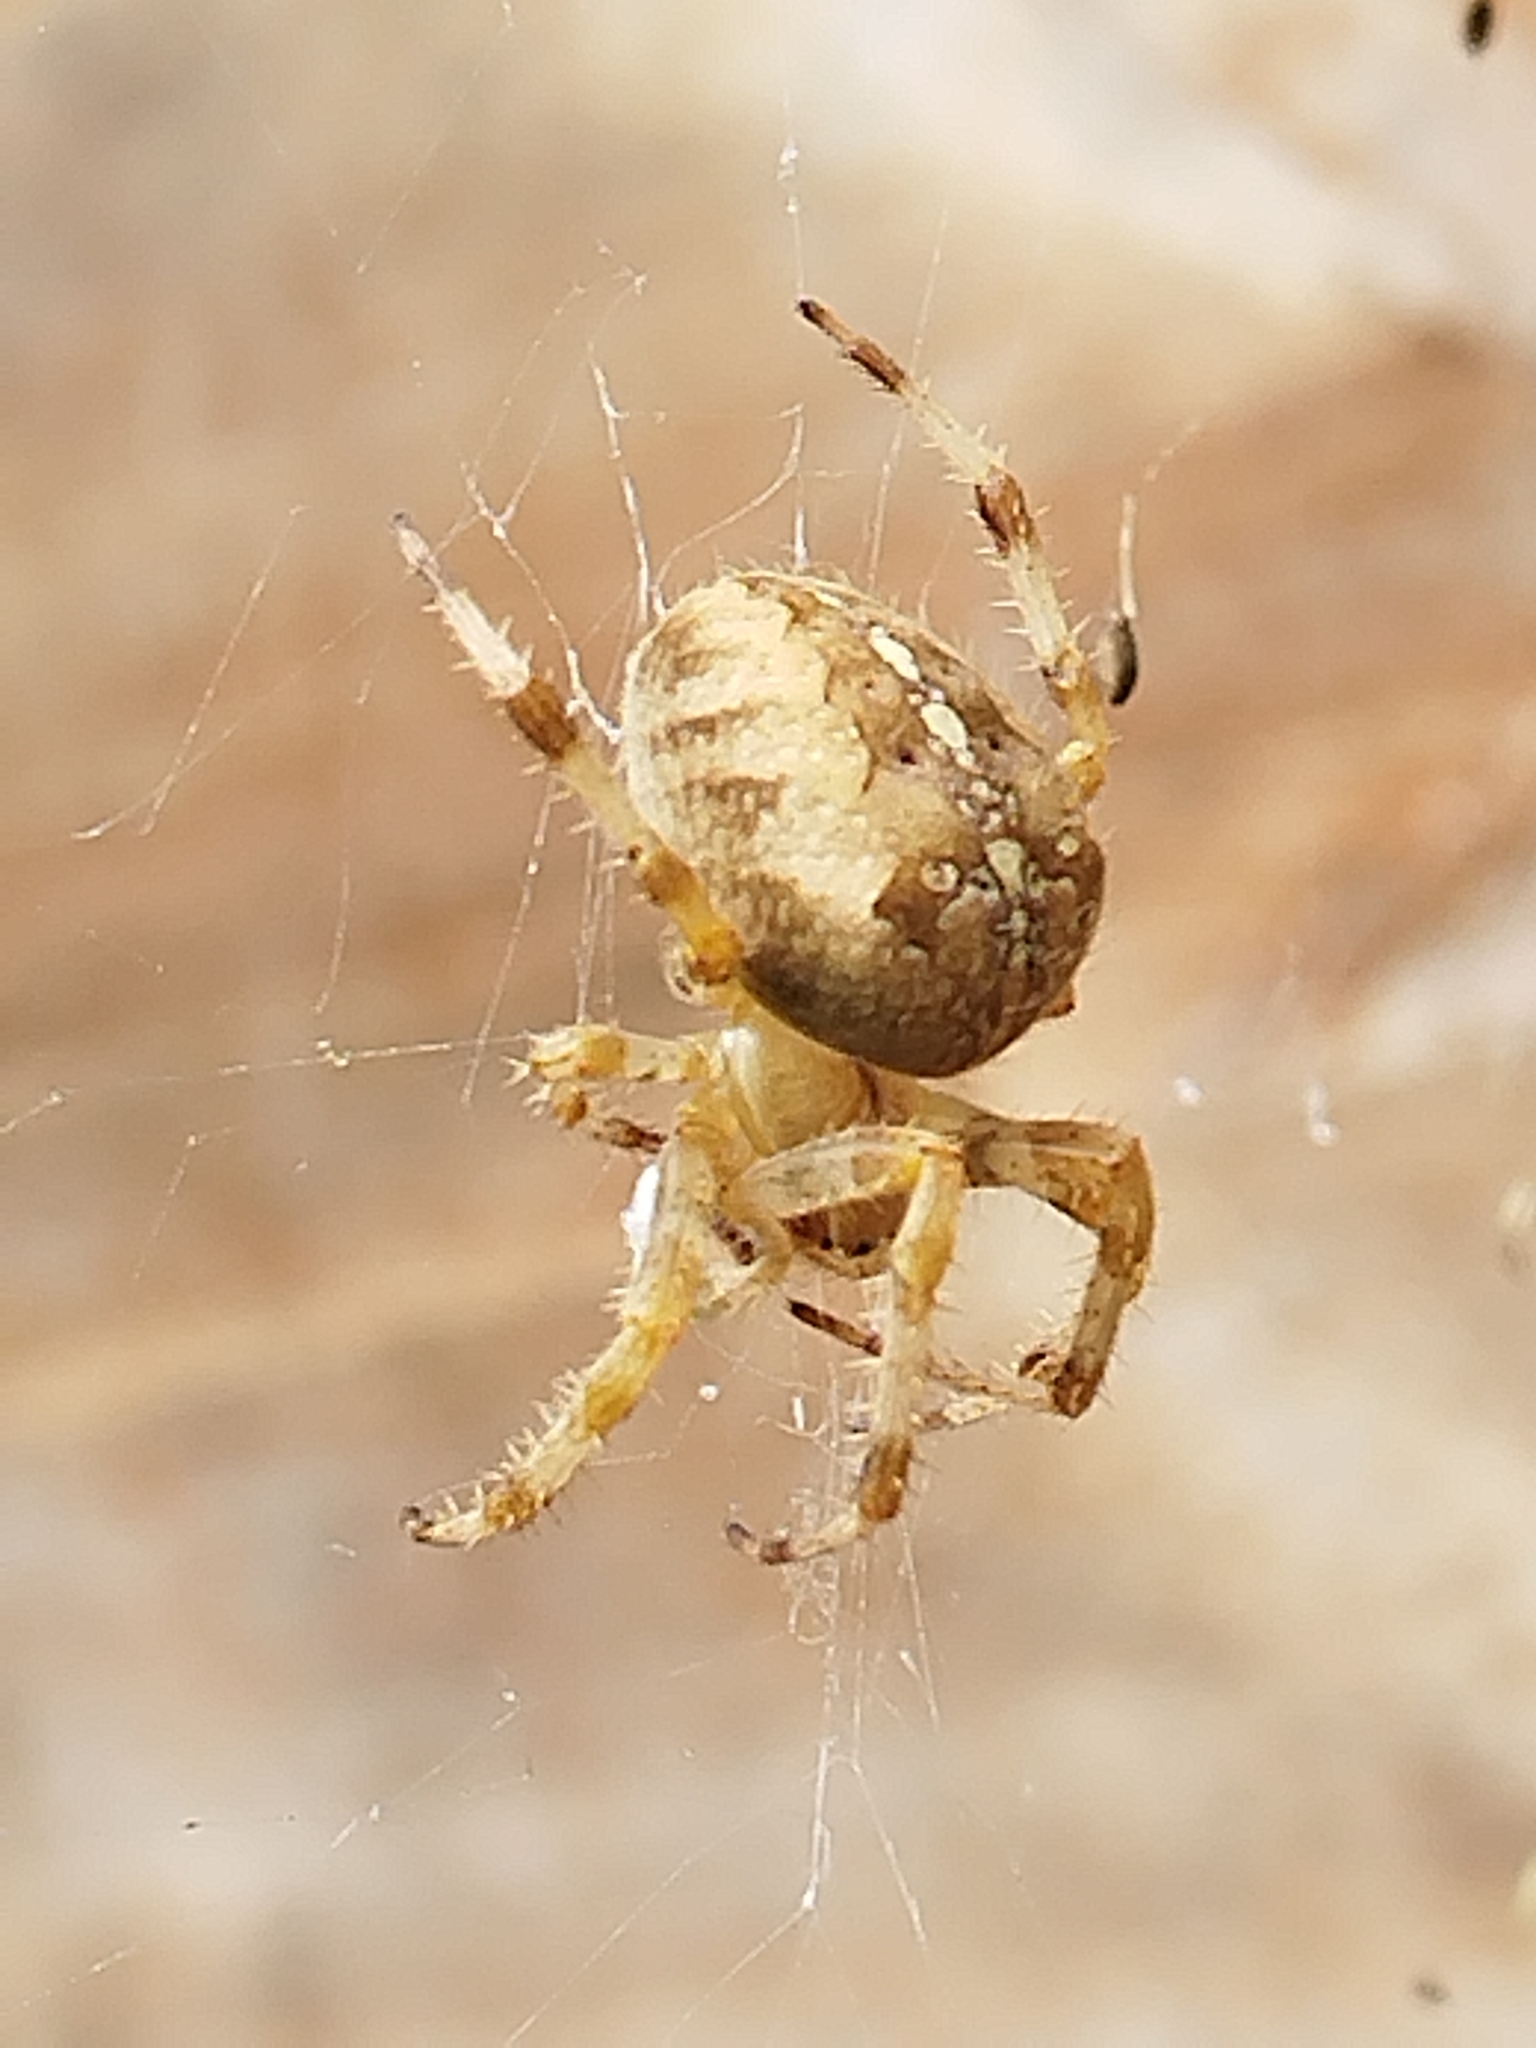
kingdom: Animalia
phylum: Arthropoda
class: Arachnida
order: Araneae
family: Araneidae
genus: Araneus
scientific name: Araneus diadematus
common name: Cross orbweaver
